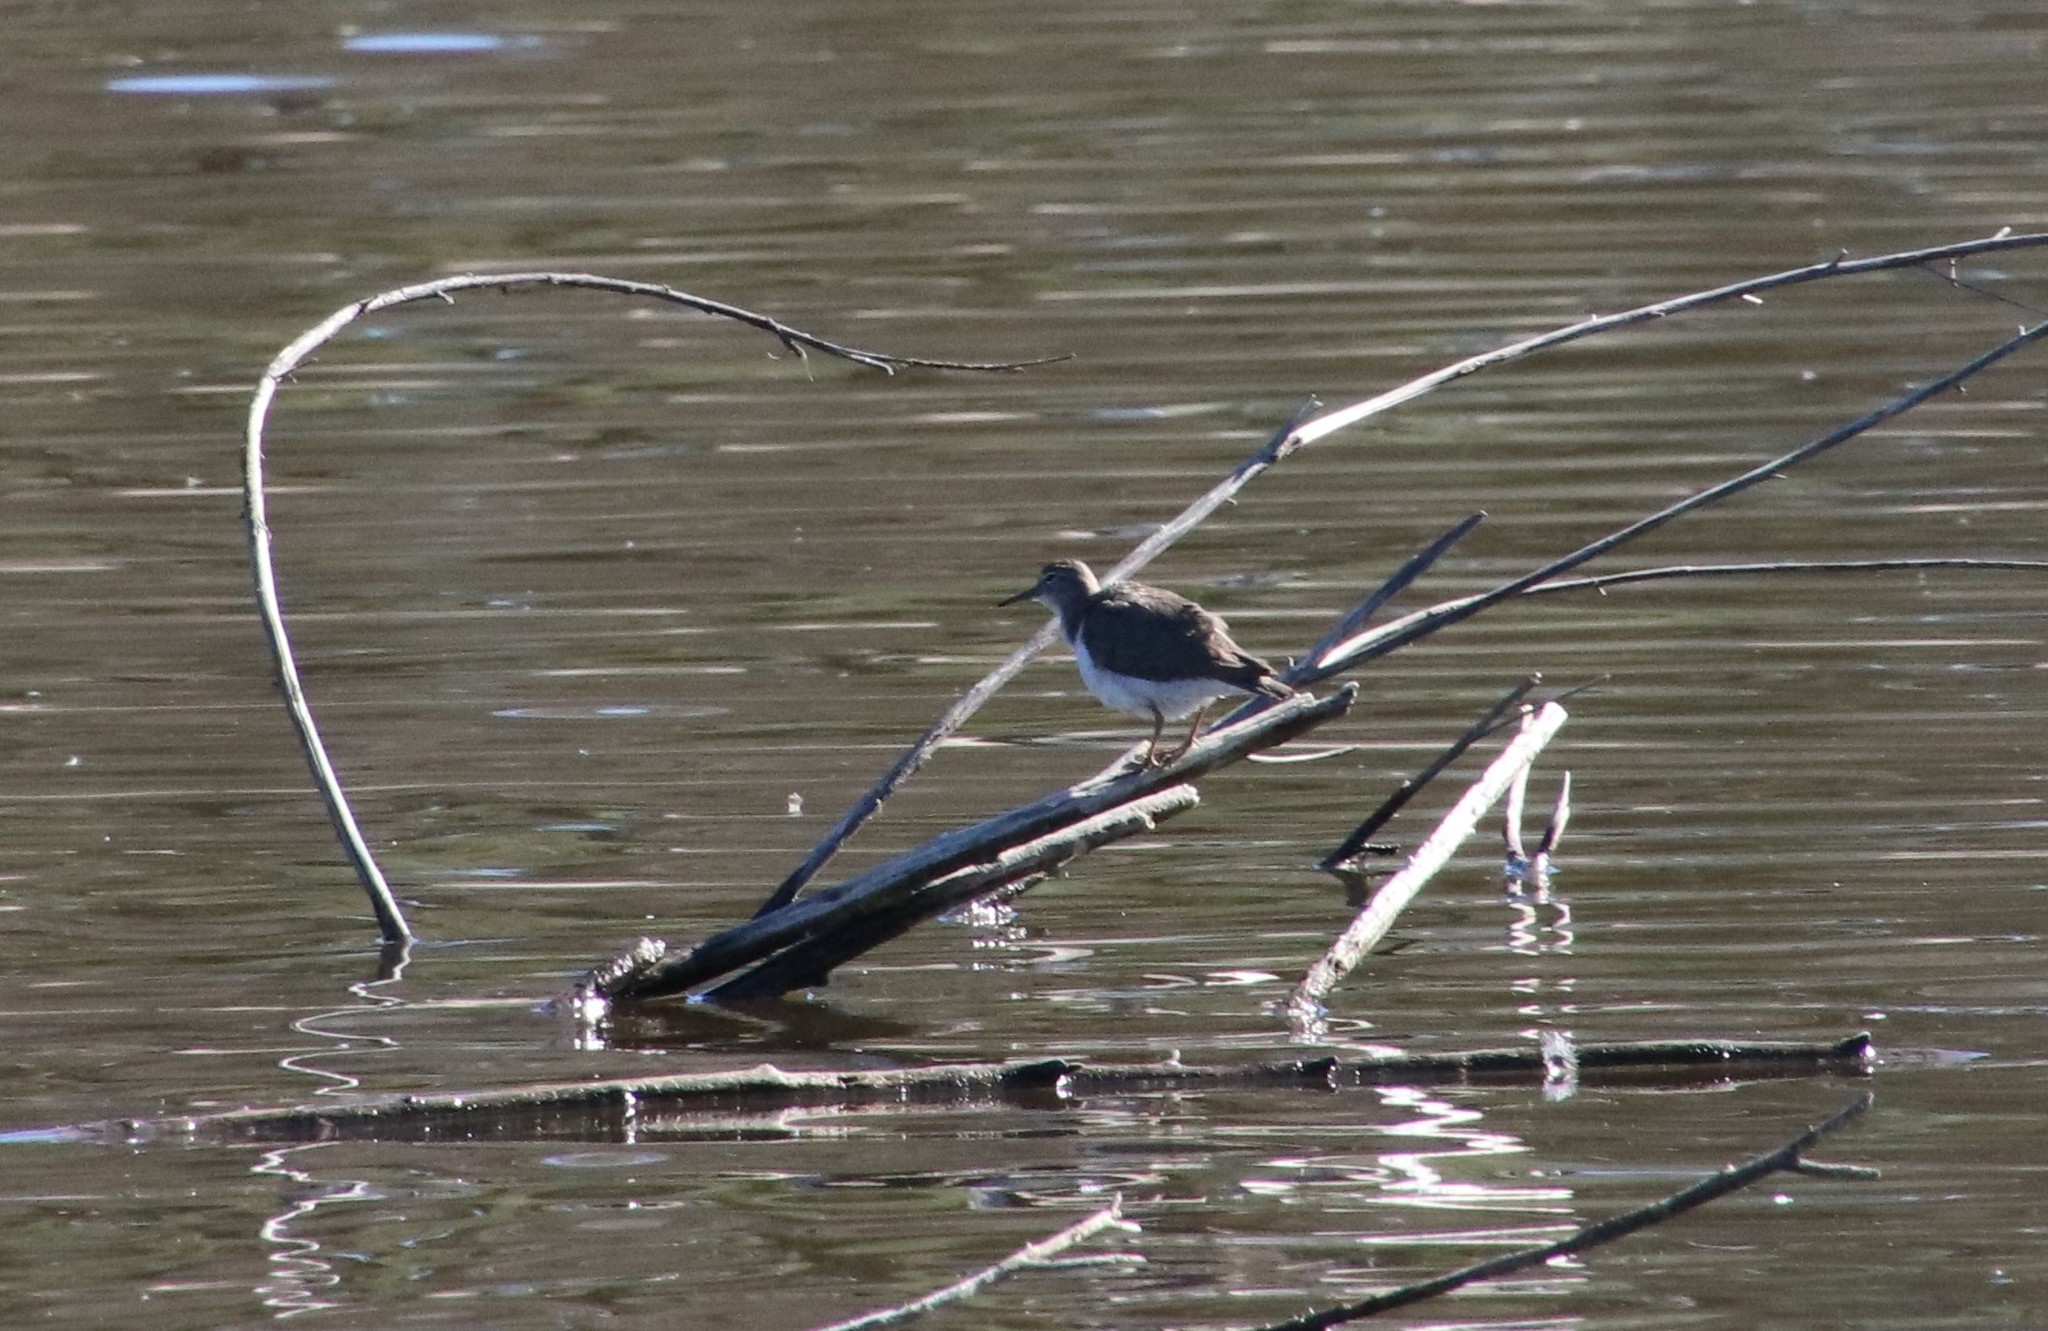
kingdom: Animalia
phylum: Chordata
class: Aves
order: Charadriiformes
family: Scolopacidae
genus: Actitis
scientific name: Actitis macularius
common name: Spotted sandpiper
